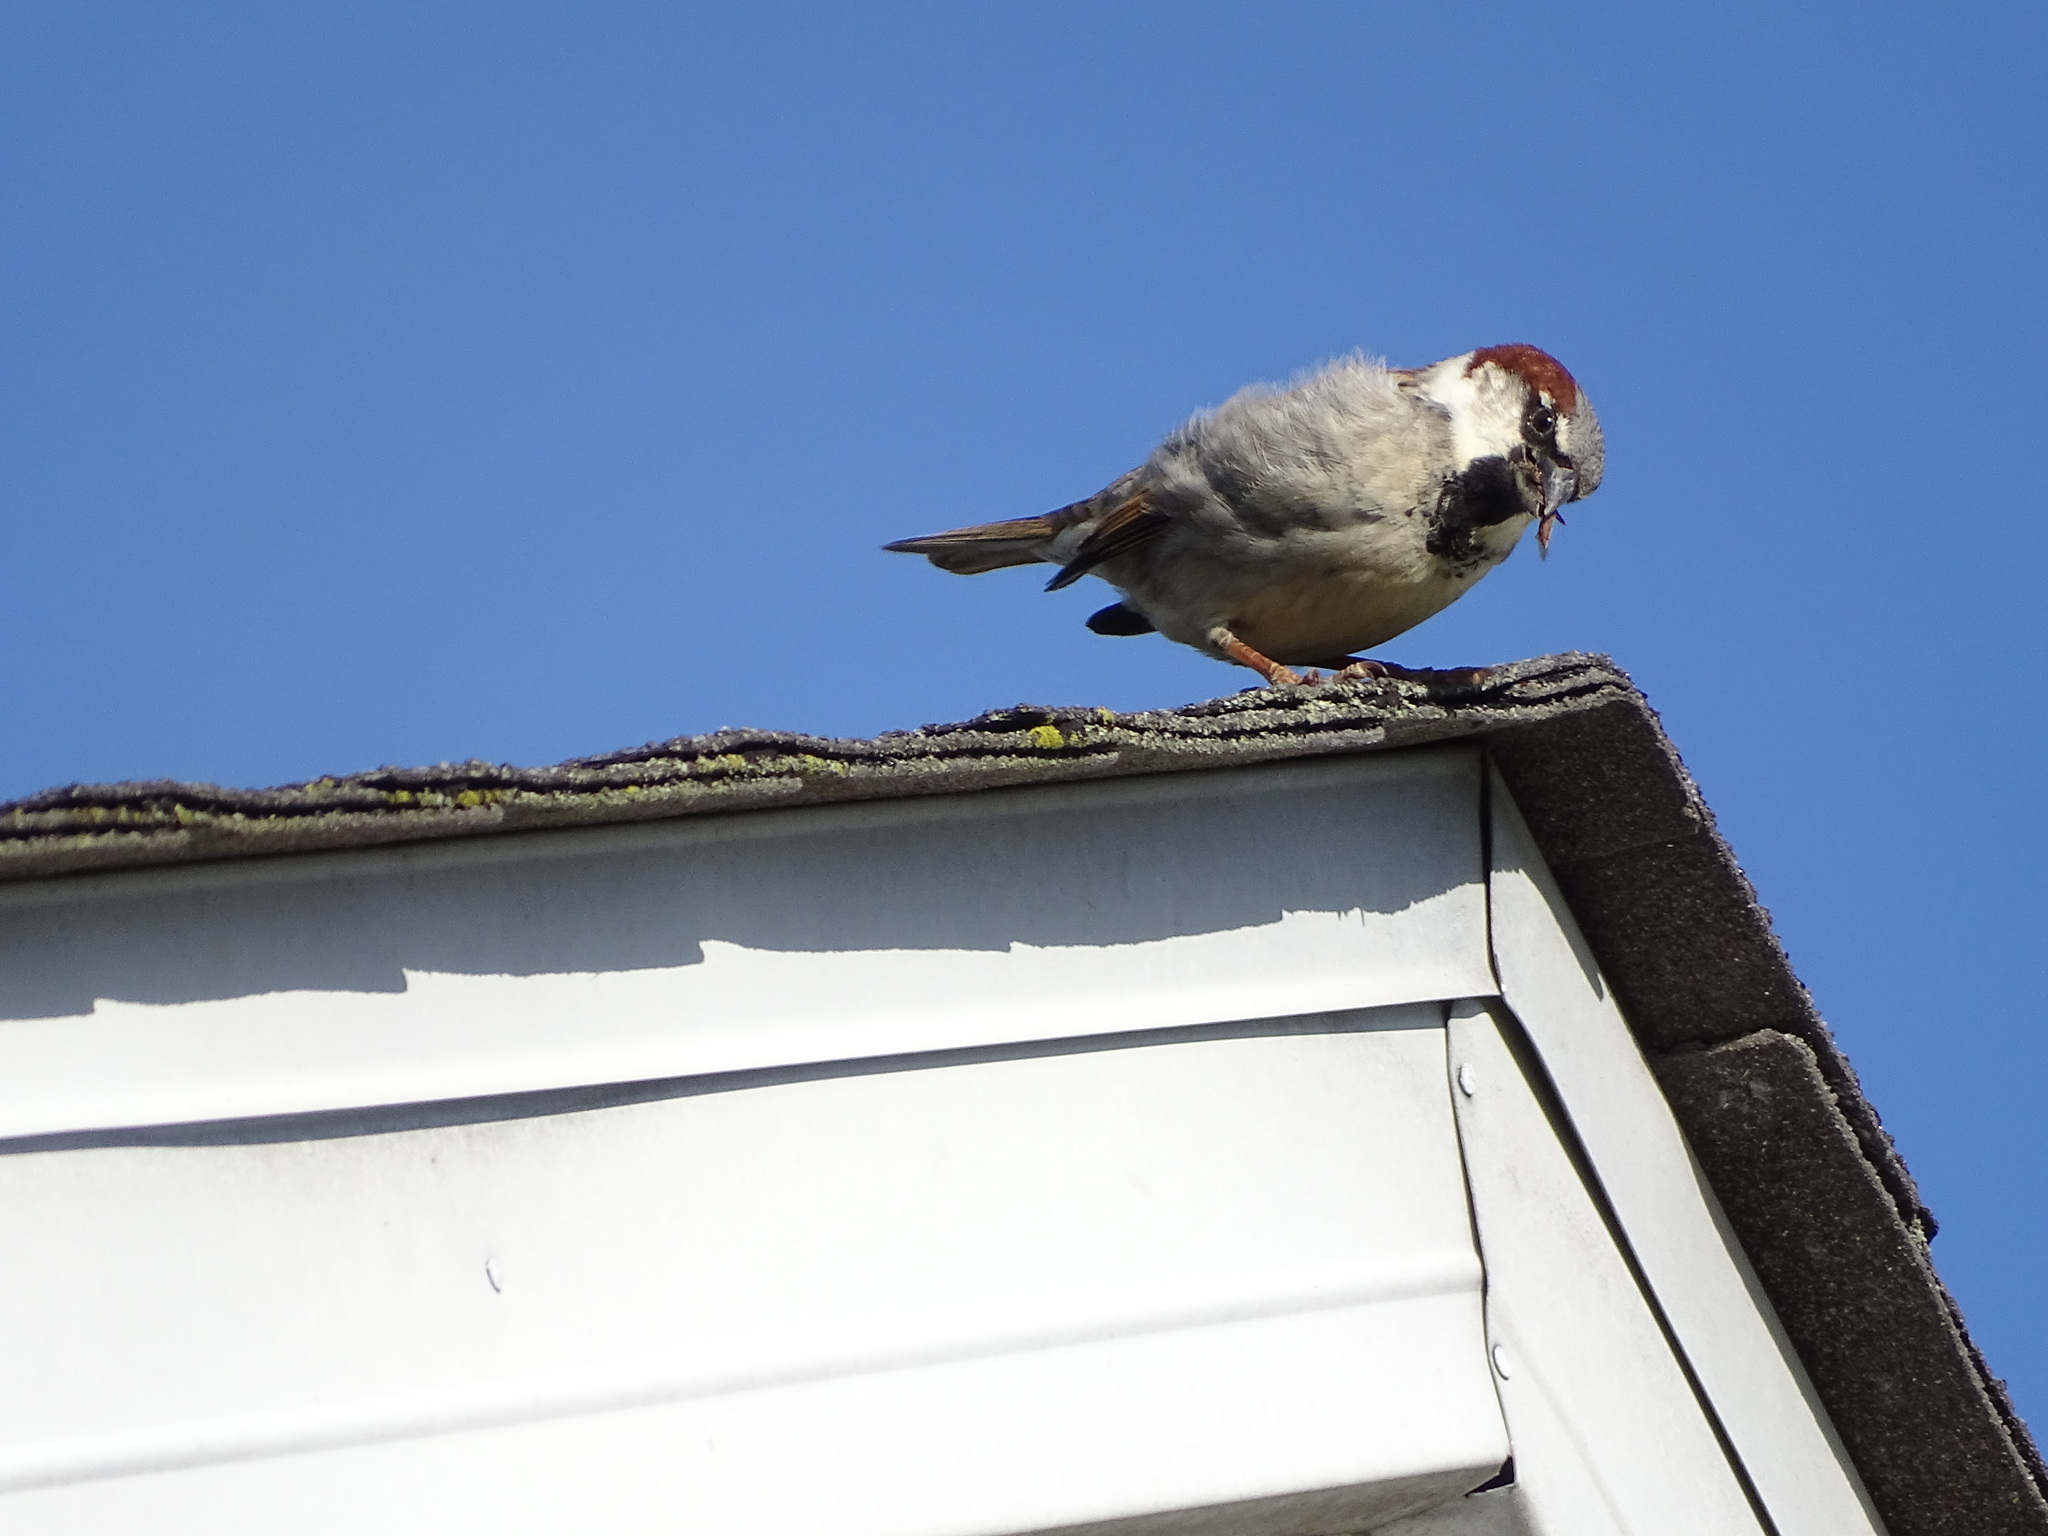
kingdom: Animalia
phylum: Chordata
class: Aves
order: Passeriformes
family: Passeridae
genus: Passer
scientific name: Passer domesticus
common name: House sparrow
